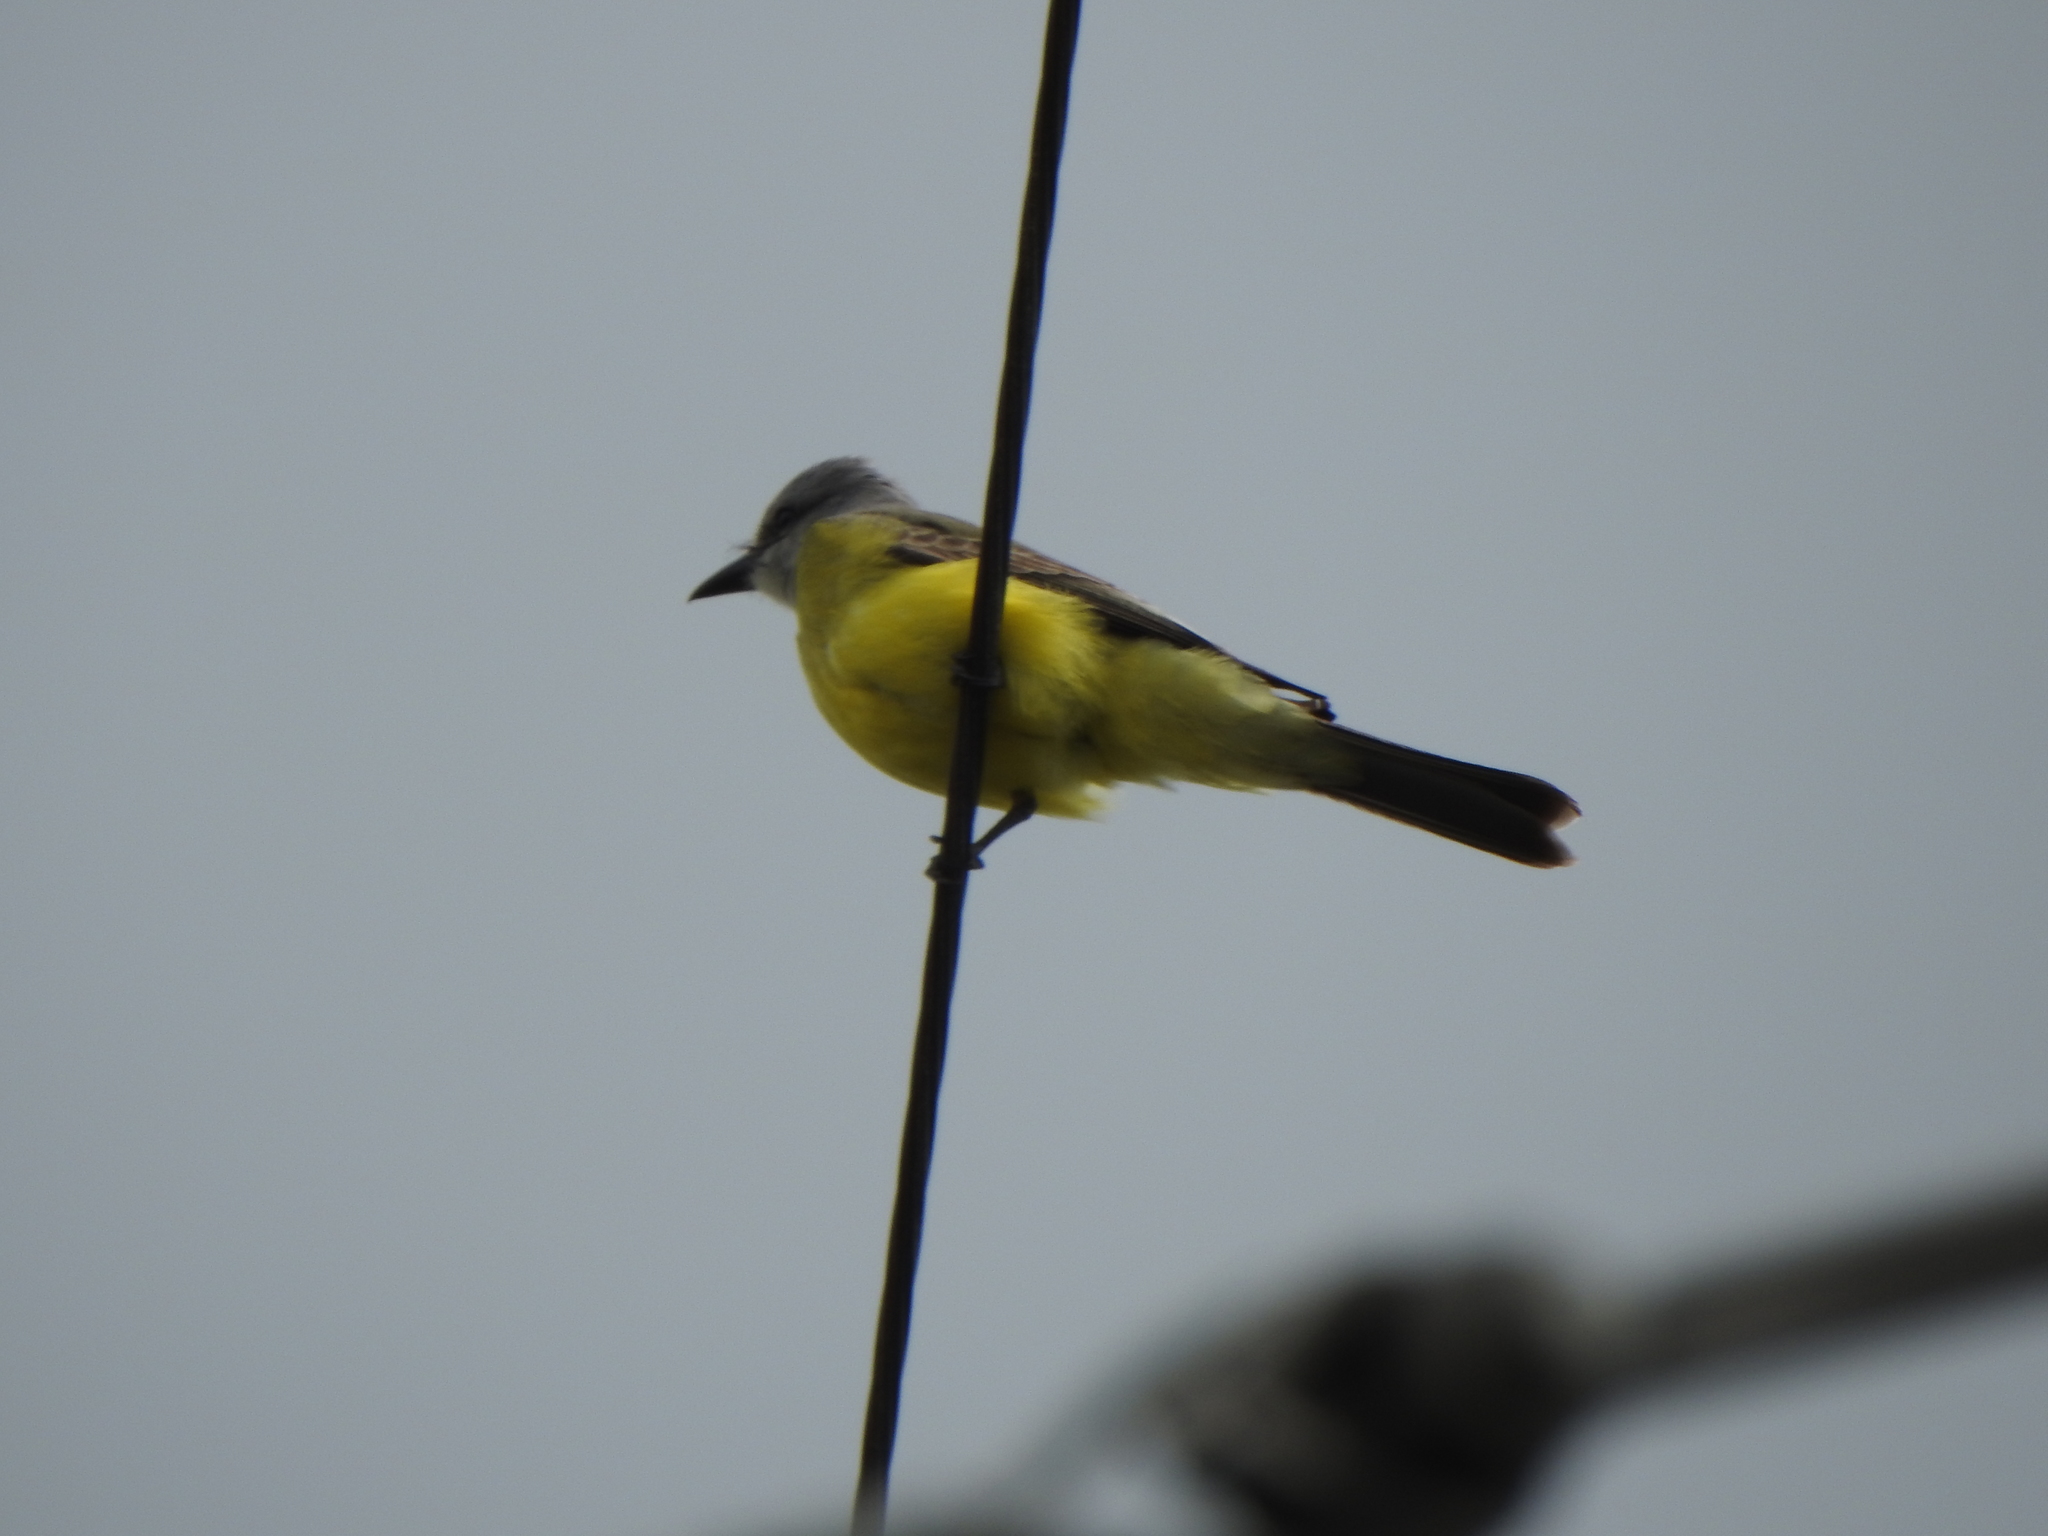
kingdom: Animalia
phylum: Chordata
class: Aves
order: Passeriformes
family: Tyrannidae
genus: Tyrannus
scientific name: Tyrannus melancholicus
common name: Tropical kingbird
